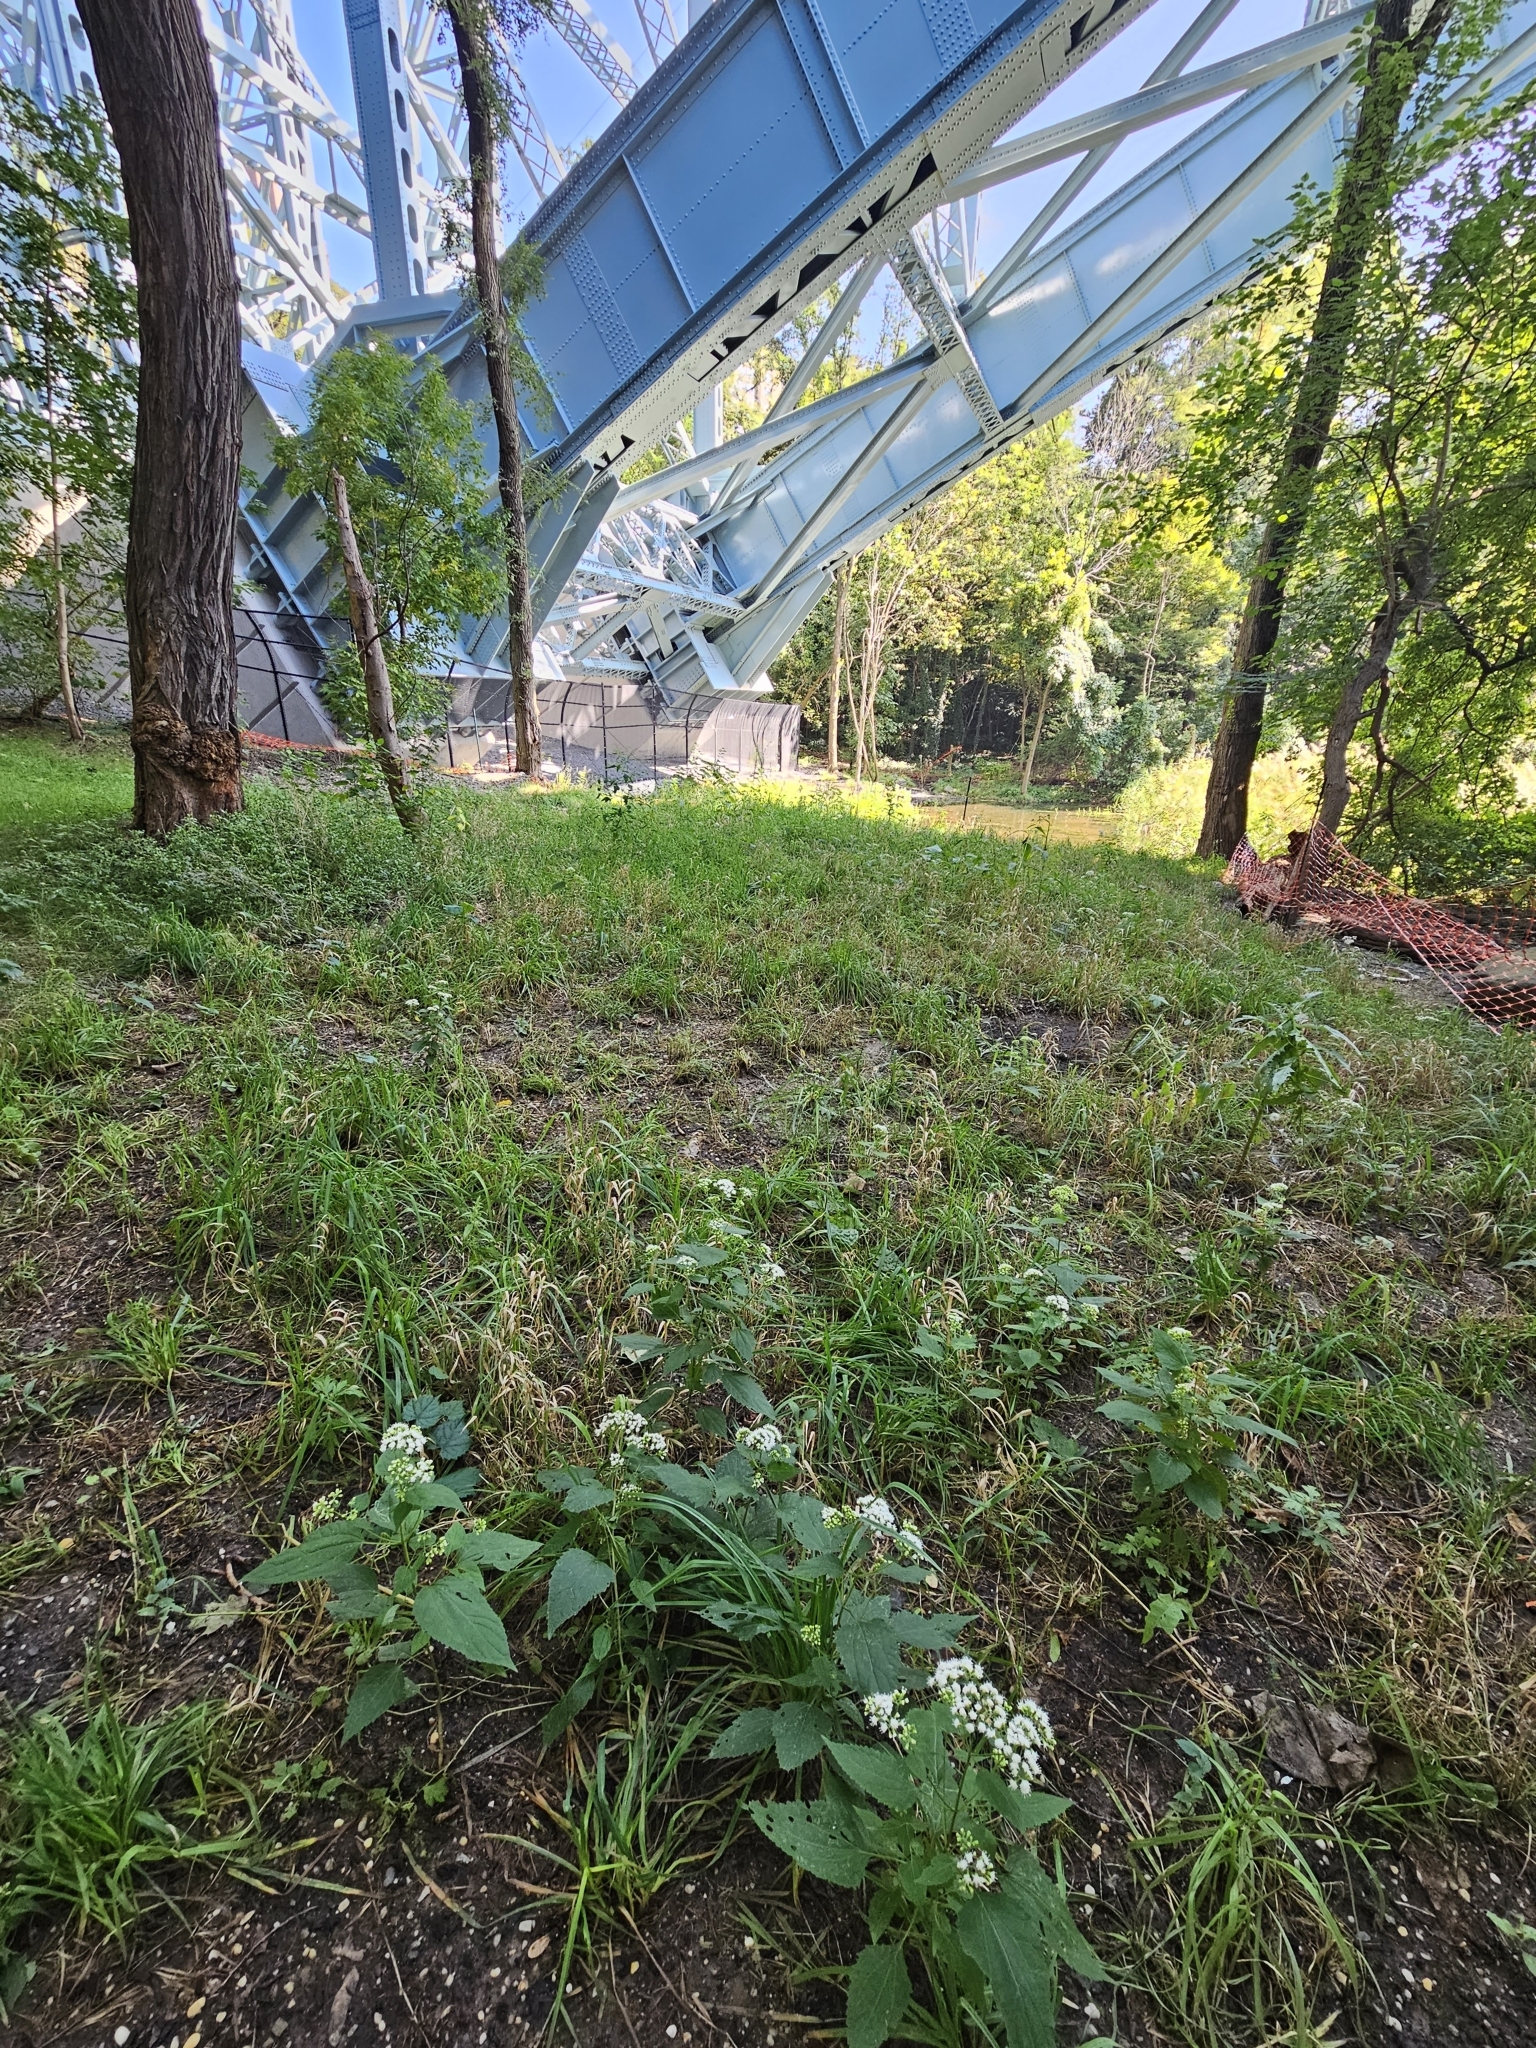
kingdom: Plantae
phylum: Tracheophyta
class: Magnoliopsida
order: Asterales
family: Asteraceae
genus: Ageratina
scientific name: Ageratina altissima
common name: White snakeroot
